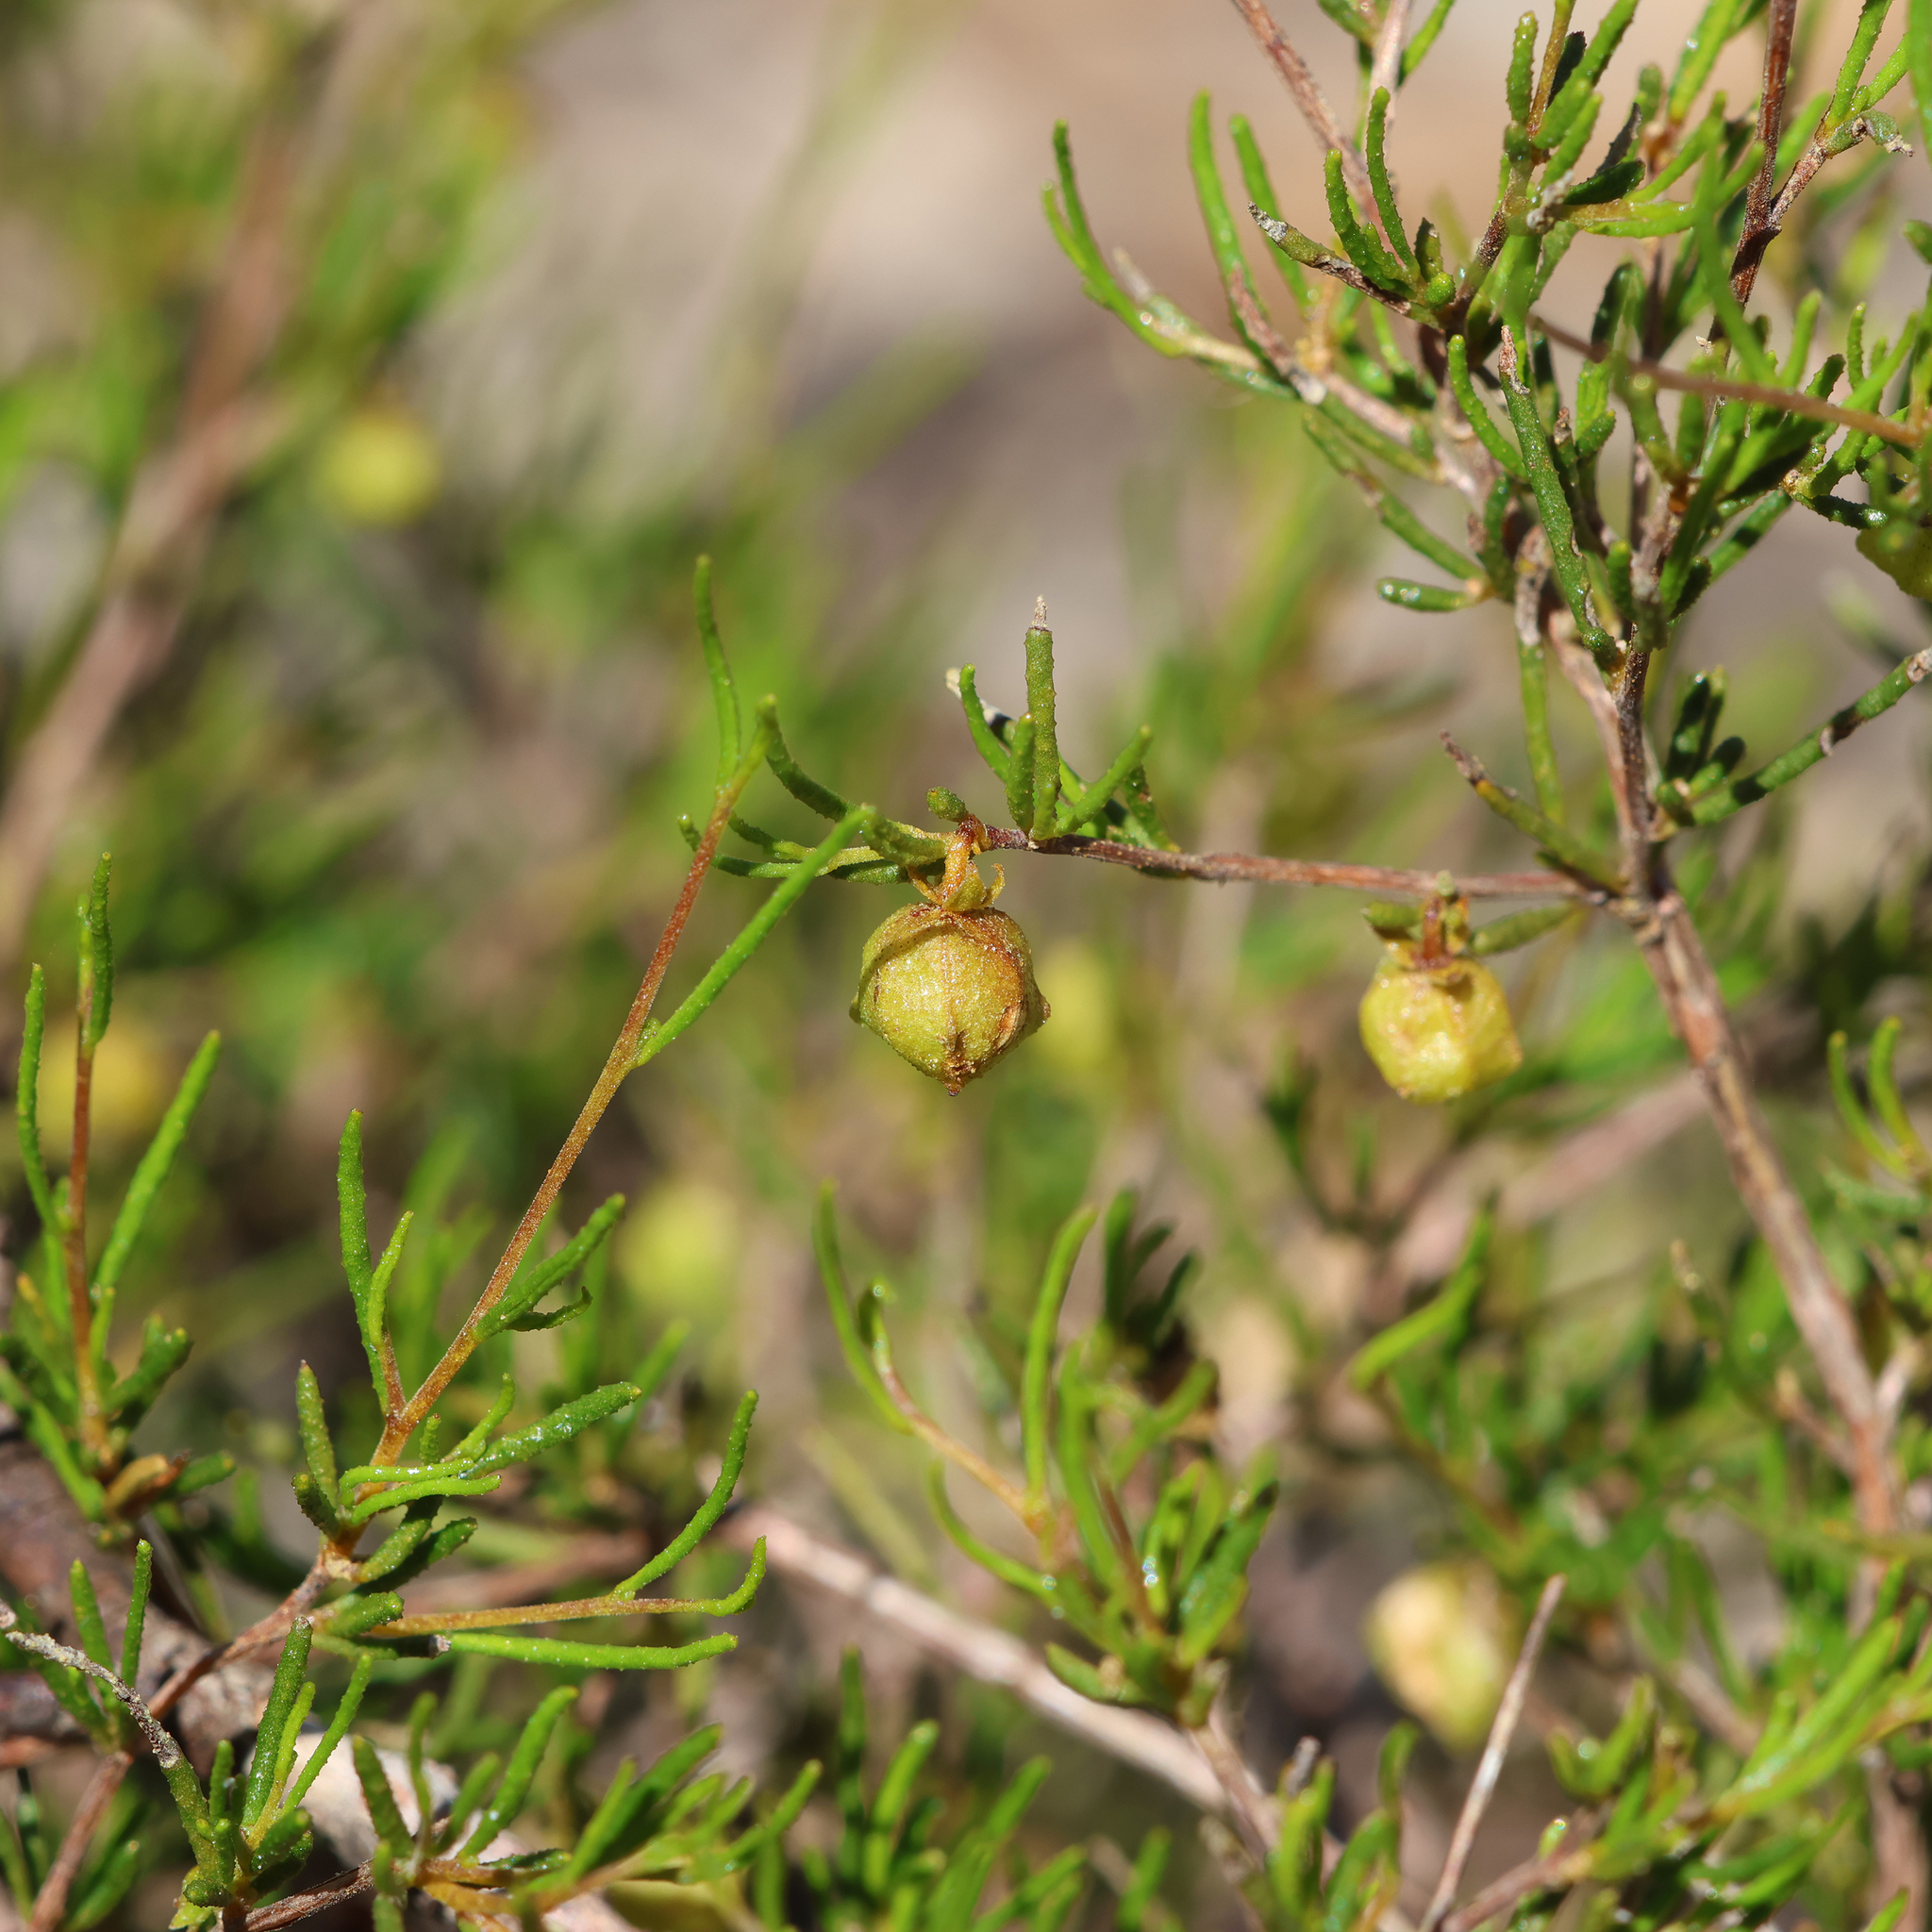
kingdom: Plantae
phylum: Tracheophyta
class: Magnoliopsida
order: Sapindales
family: Sapindaceae
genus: Dodonaea
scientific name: Dodonaea hexandra
